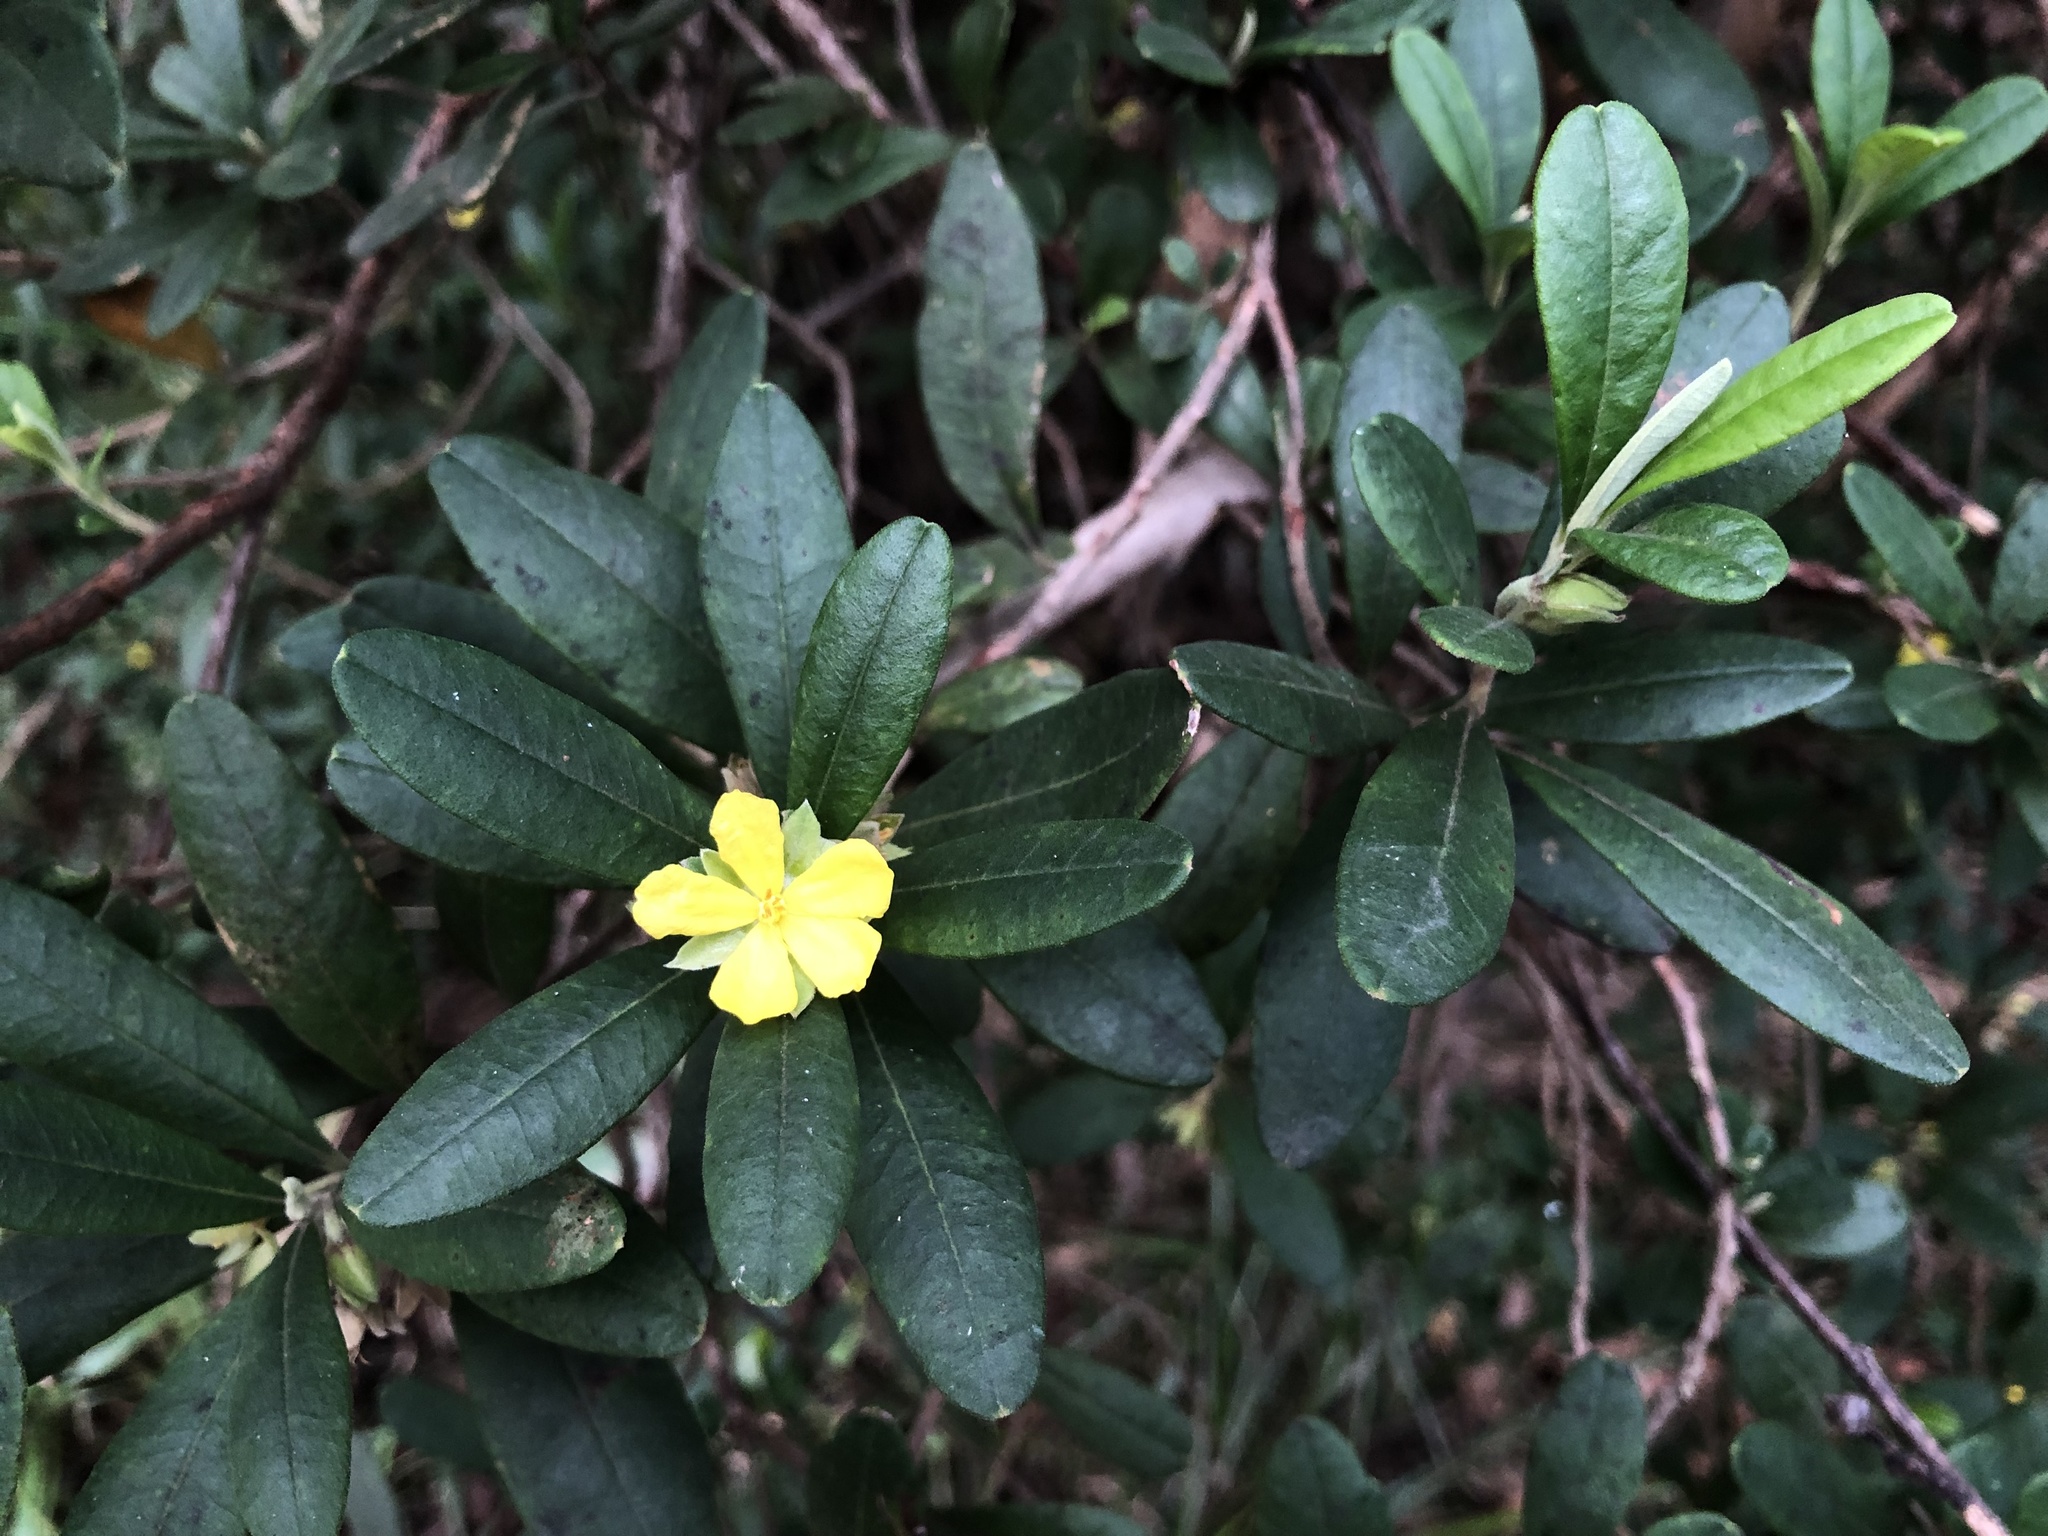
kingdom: Plantae
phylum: Tracheophyta
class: Magnoliopsida
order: Dilleniales
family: Dilleniaceae
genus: Hibbertia
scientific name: Hibbertia hexandra
